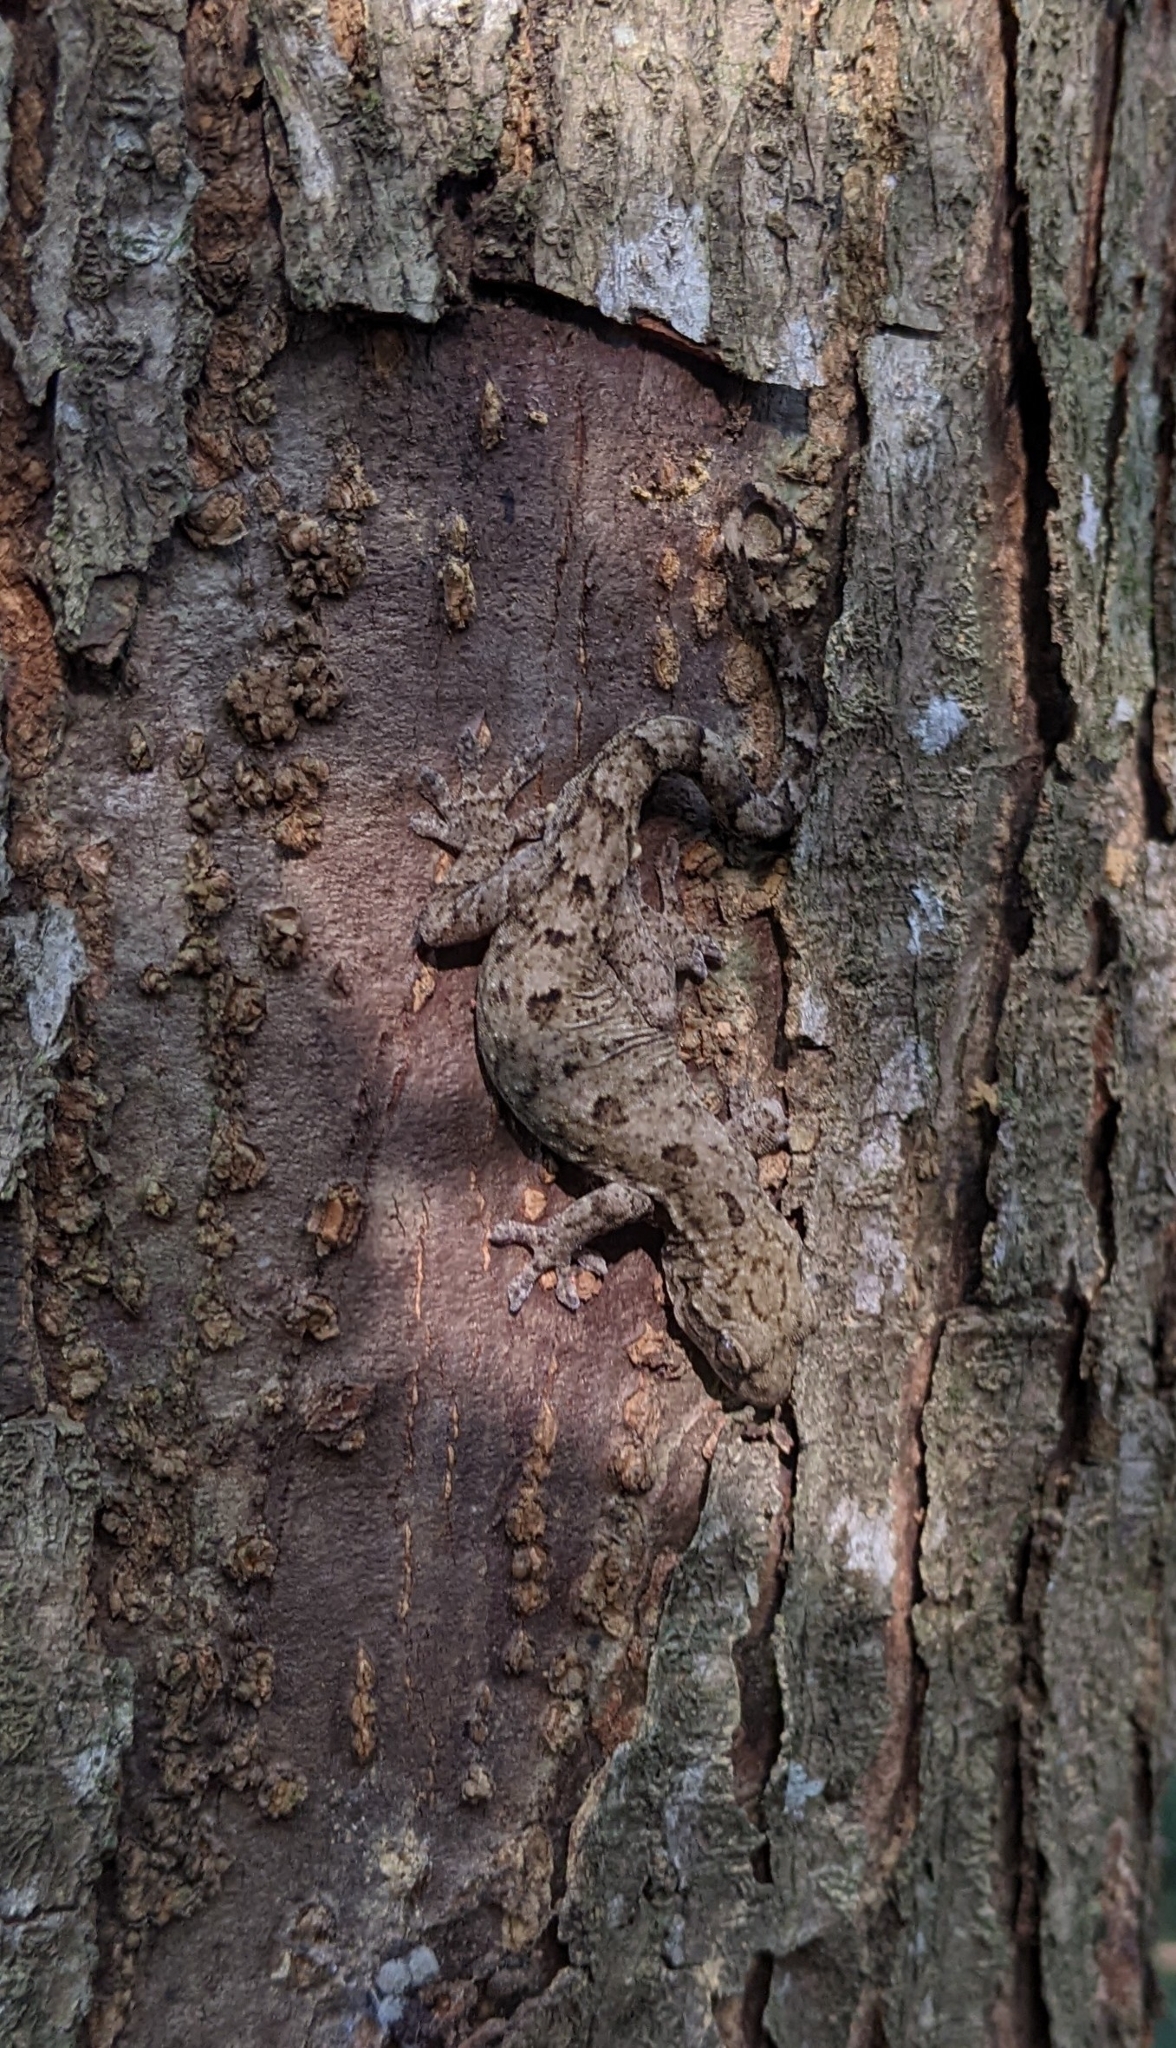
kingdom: Animalia
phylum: Chordata
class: Squamata
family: Gekkonidae
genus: Gekko
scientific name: Gekko hokouensis
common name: Kwangsi gecko
